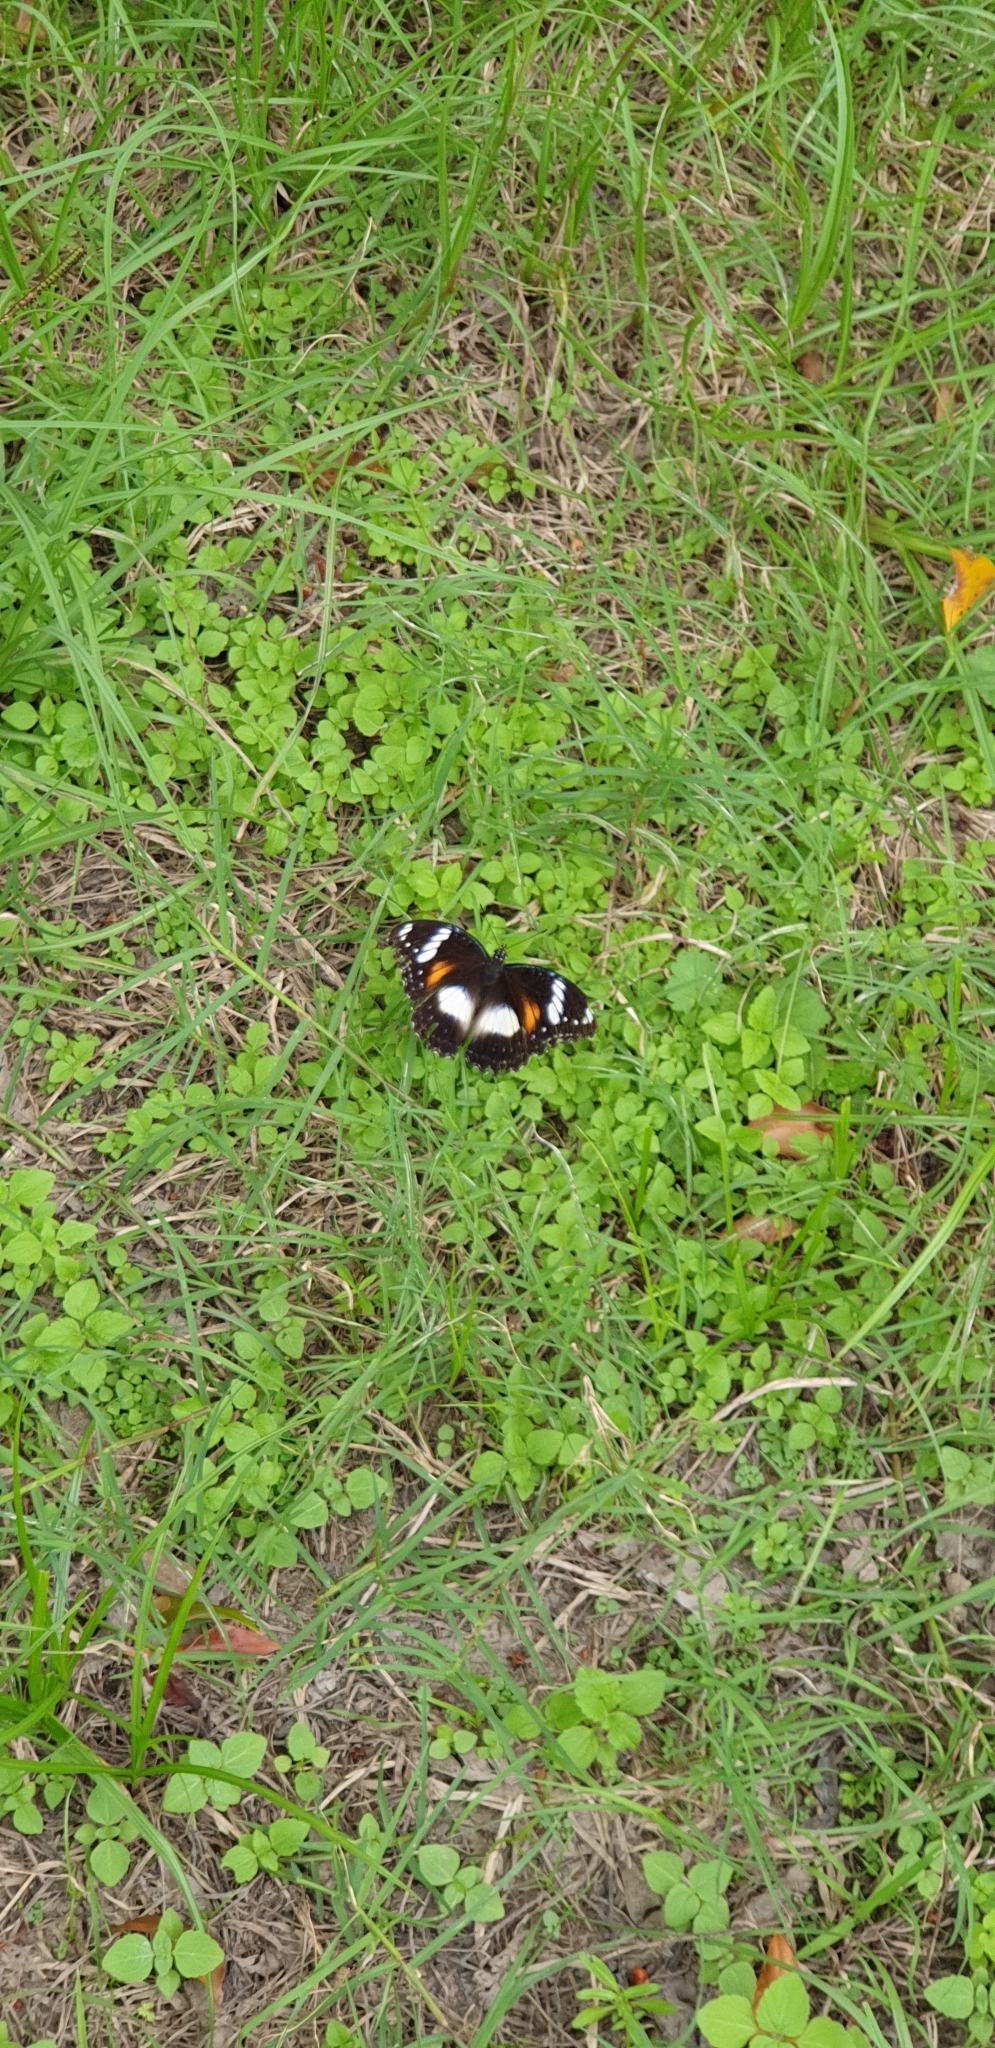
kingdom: Animalia
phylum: Arthropoda
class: Insecta
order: Lepidoptera
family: Nymphalidae
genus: Hypolimnas
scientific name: Hypolimnas bolina
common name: Great eggfly
